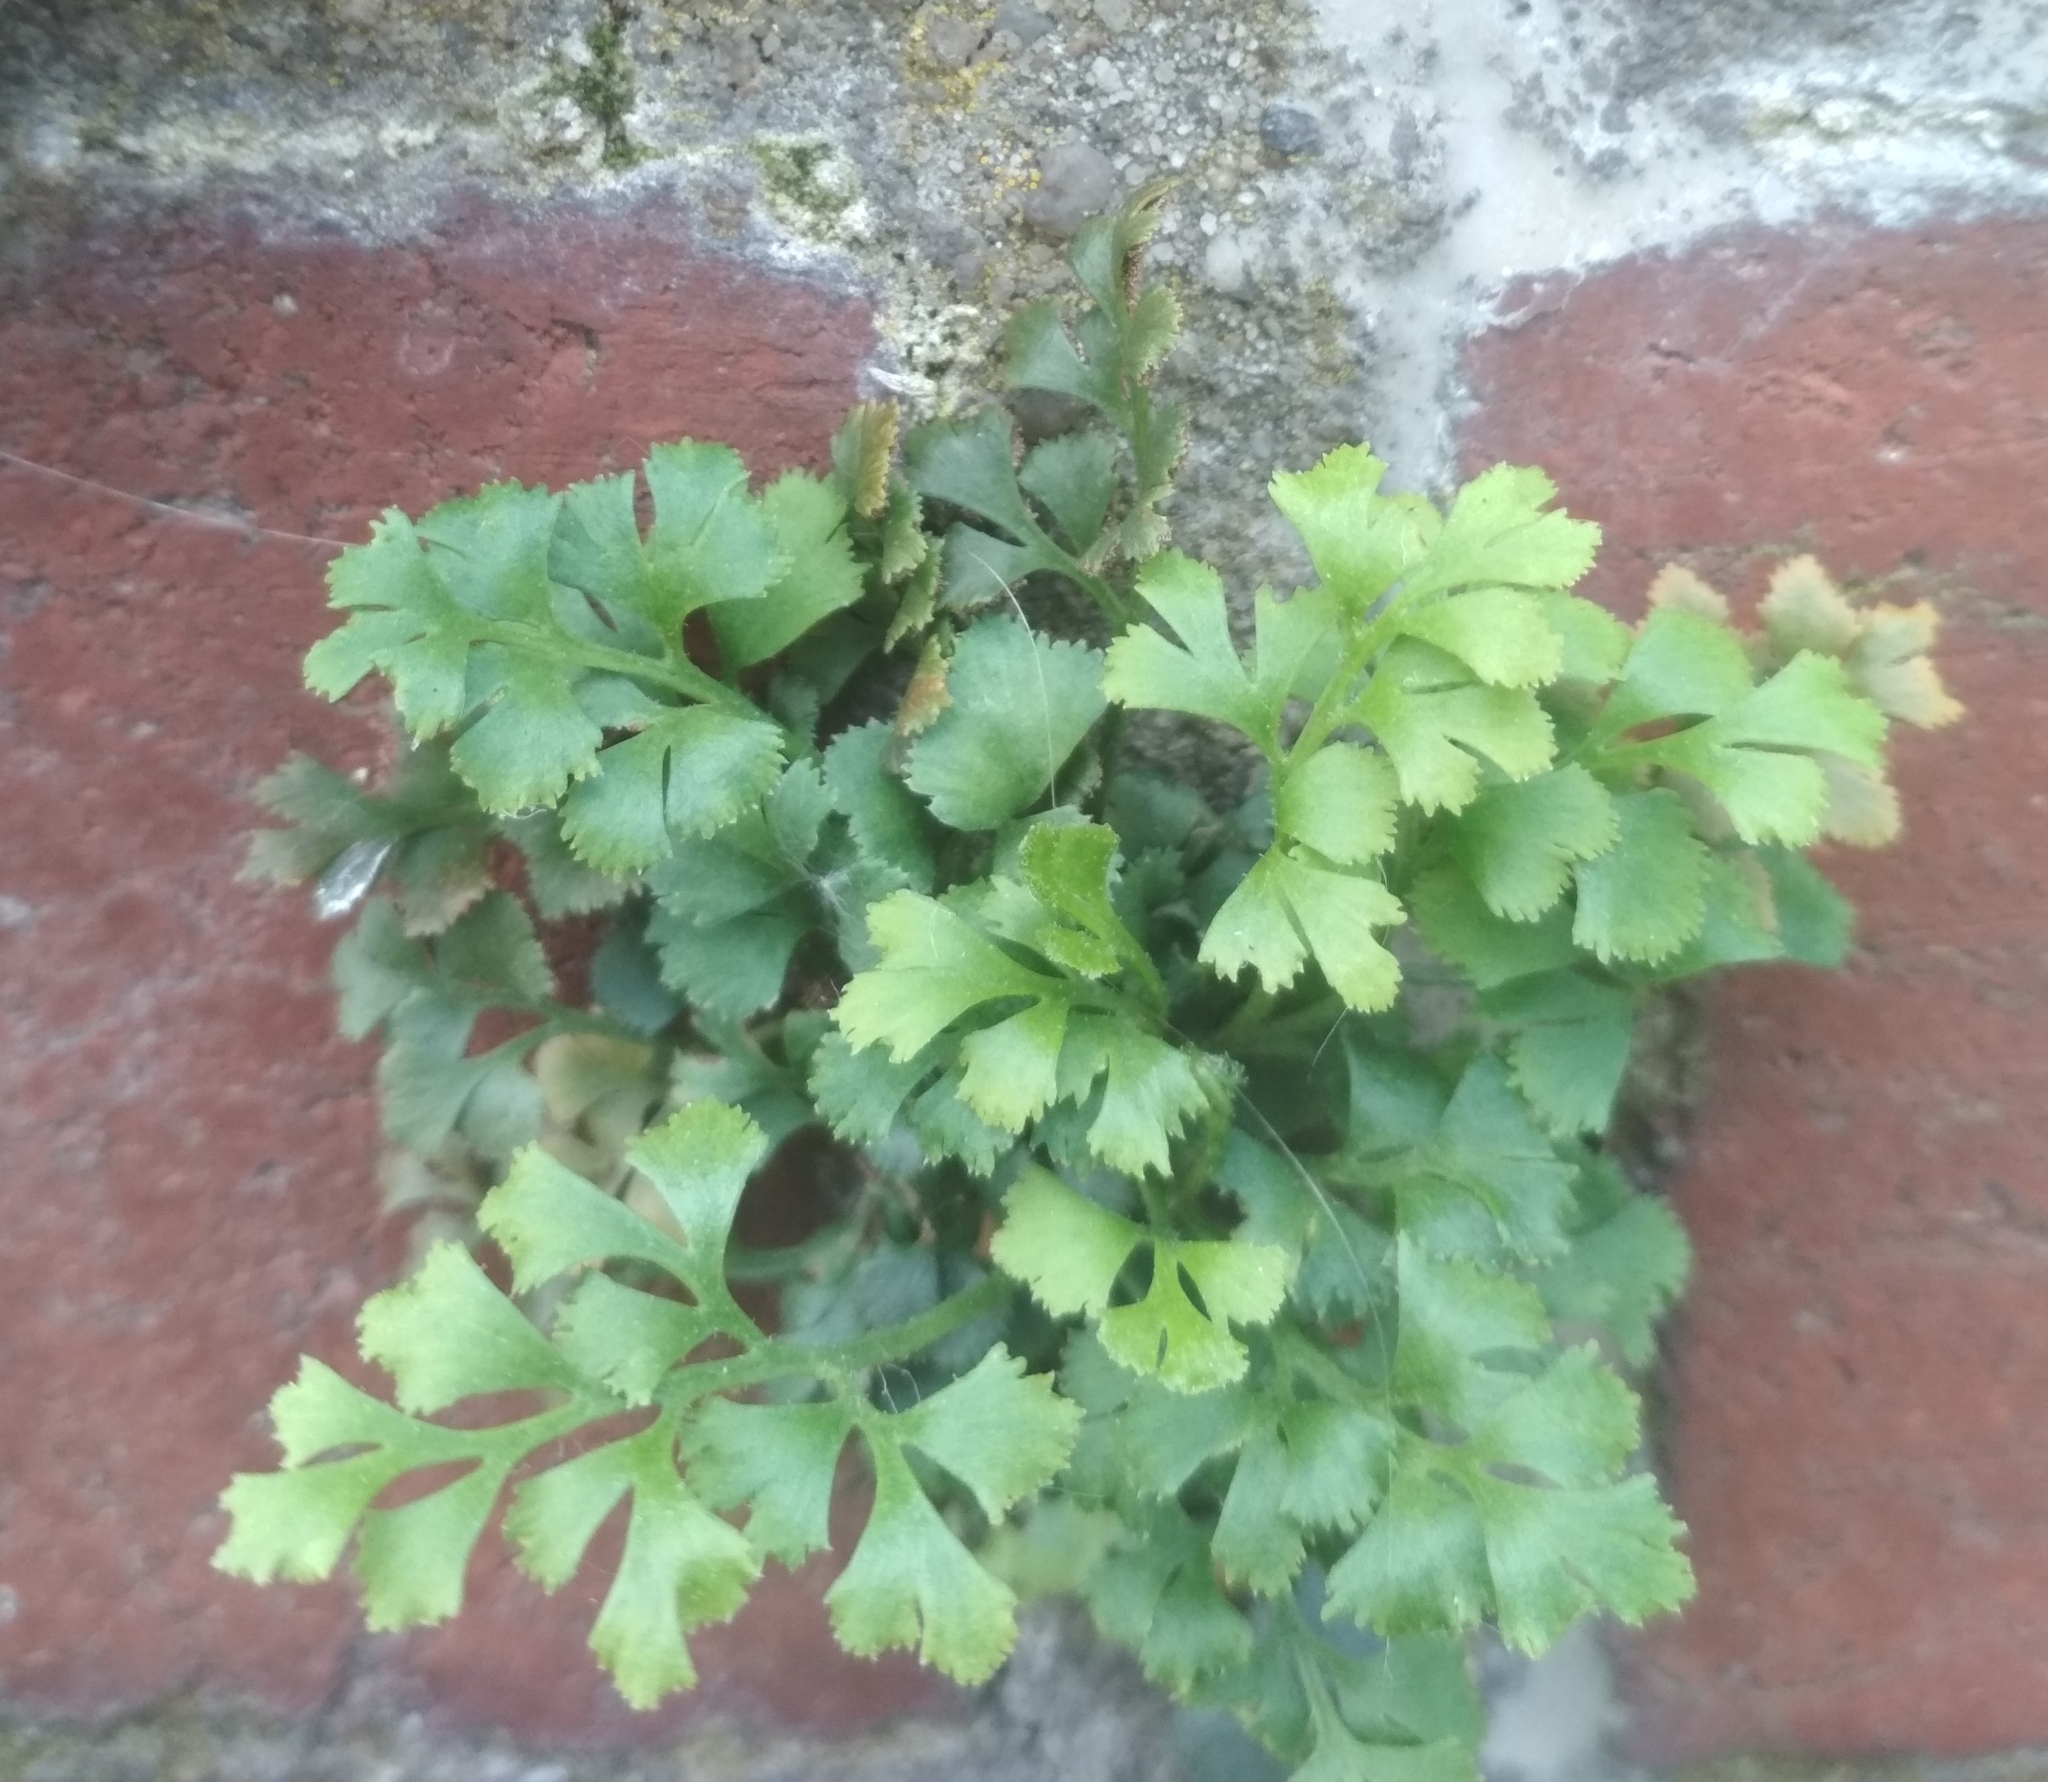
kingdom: Plantae
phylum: Tracheophyta
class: Polypodiopsida
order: Polypodiales
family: Aspleniaceae
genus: Asplenium
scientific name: Asplenium ruta-muraria
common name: Wall-rue
